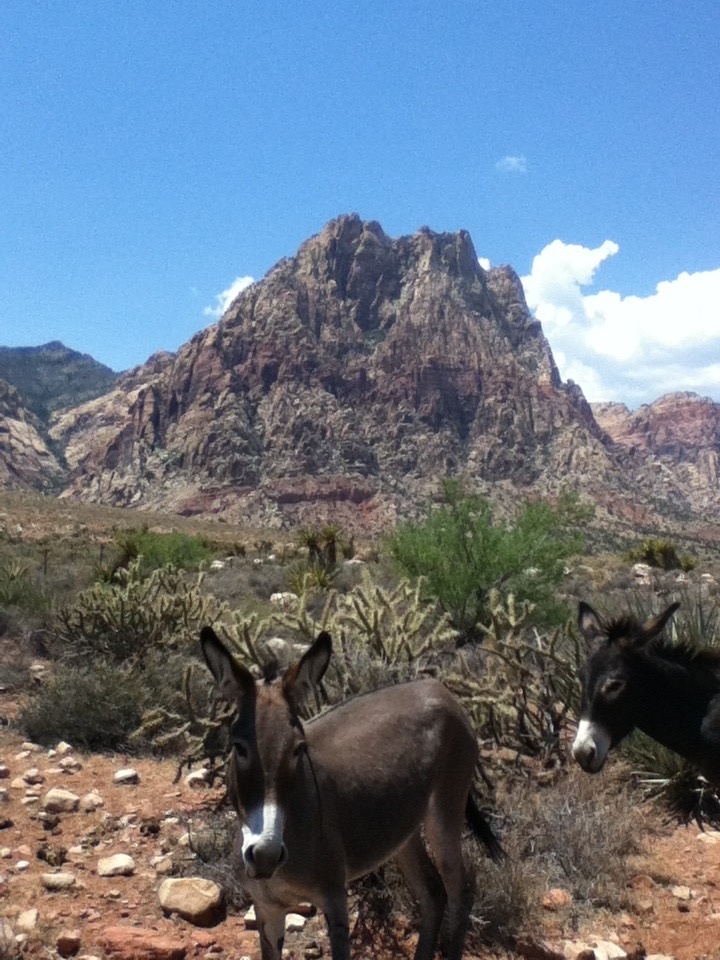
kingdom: Animalia
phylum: Chordata
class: Mammalia
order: Perissodactyla
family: Equidae
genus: Equus
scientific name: Equus asinus
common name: Ass
